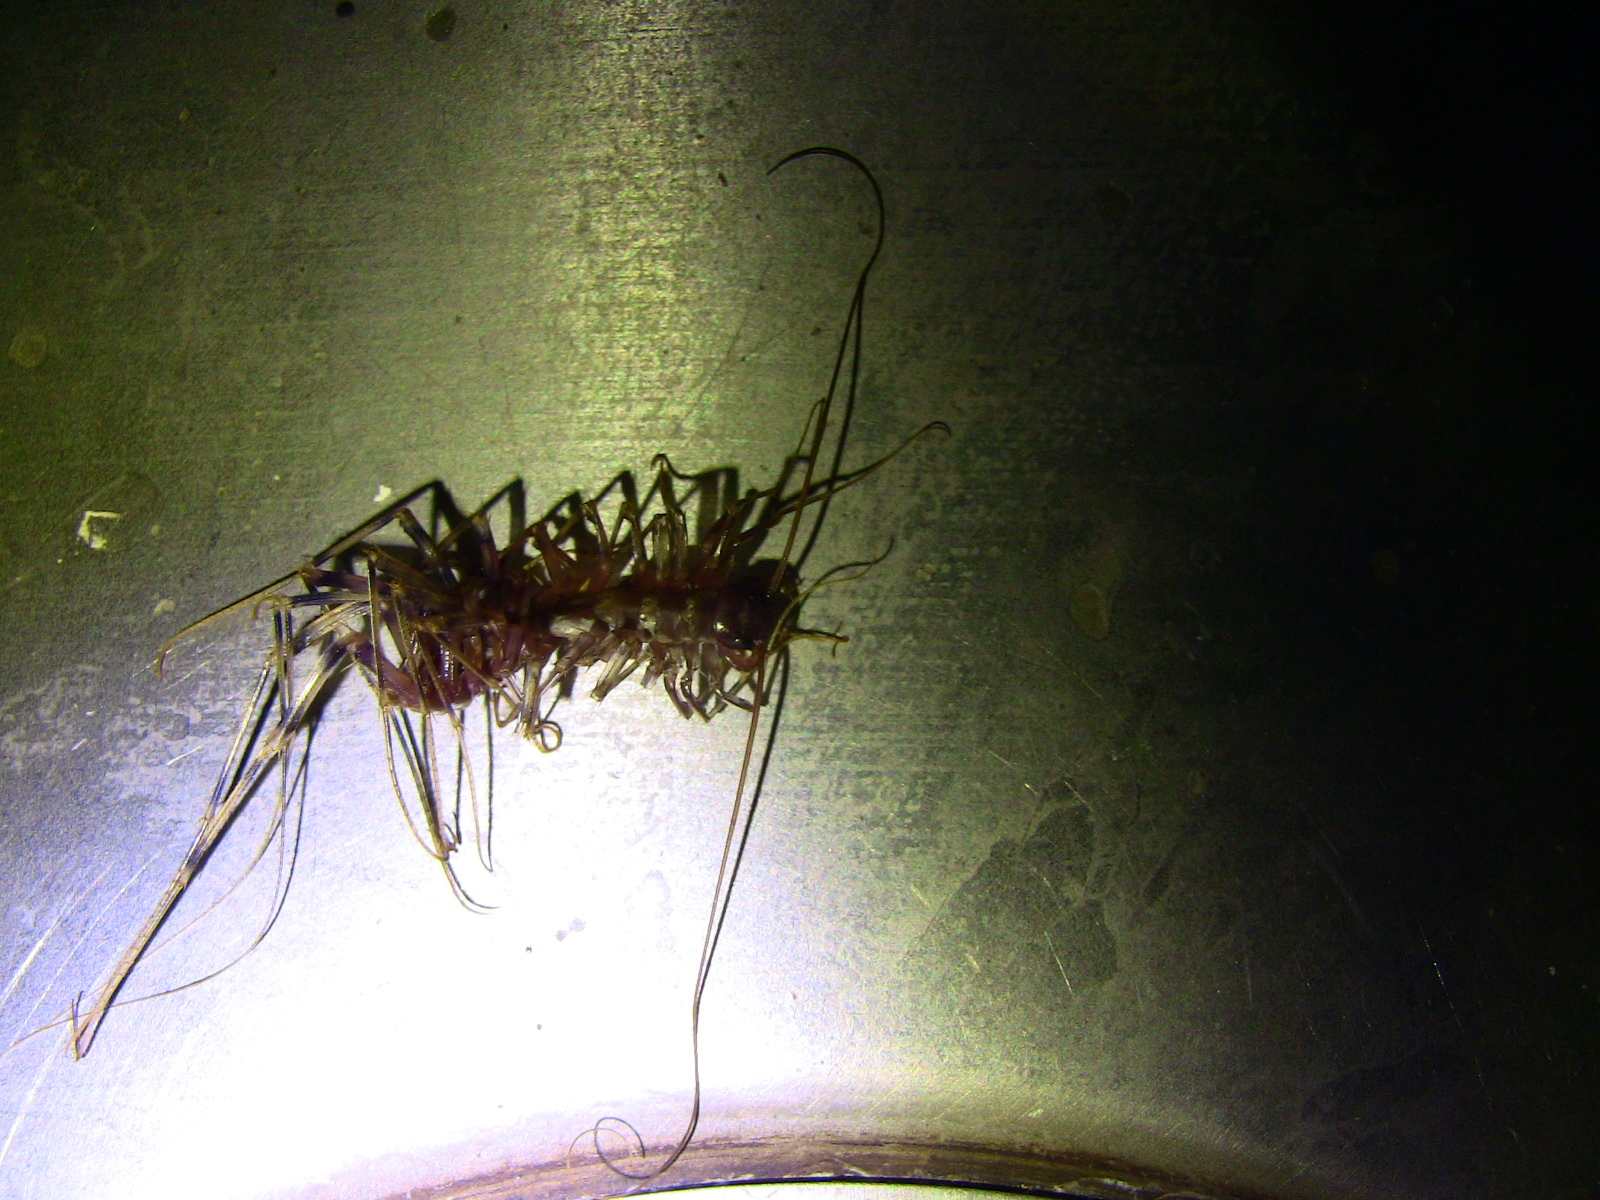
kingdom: Animalia
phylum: Arthropoda
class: Chilopoda
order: Scutigeromorpha
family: Scutigeridae
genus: Scutigera
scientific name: Scutigera coleoptrata
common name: House centipede
